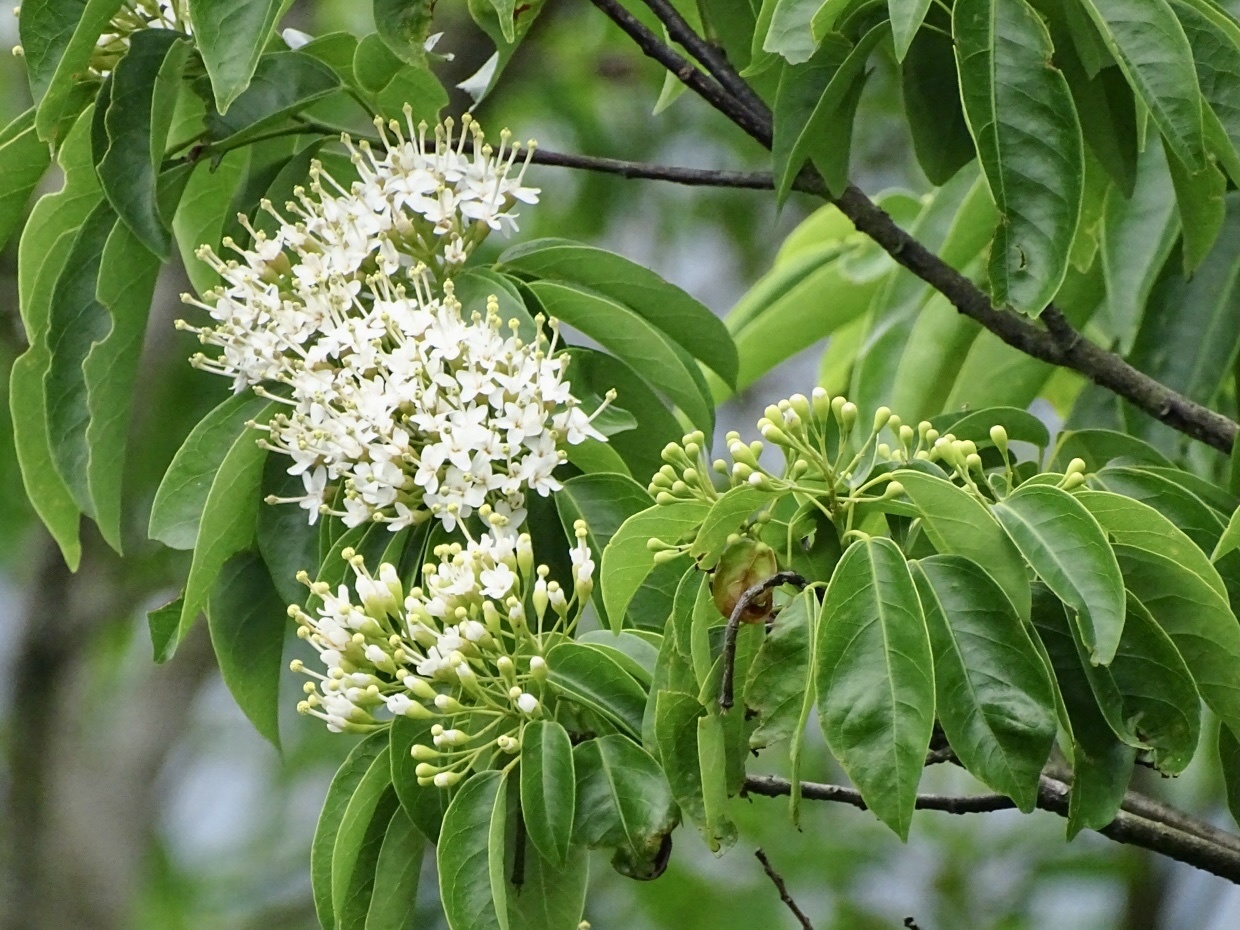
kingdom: Plantae
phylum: Tracheophyta
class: Magnoliopsida
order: Malvales
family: Malvaceae
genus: Reevesia
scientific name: Reevesia thyrsoidea
